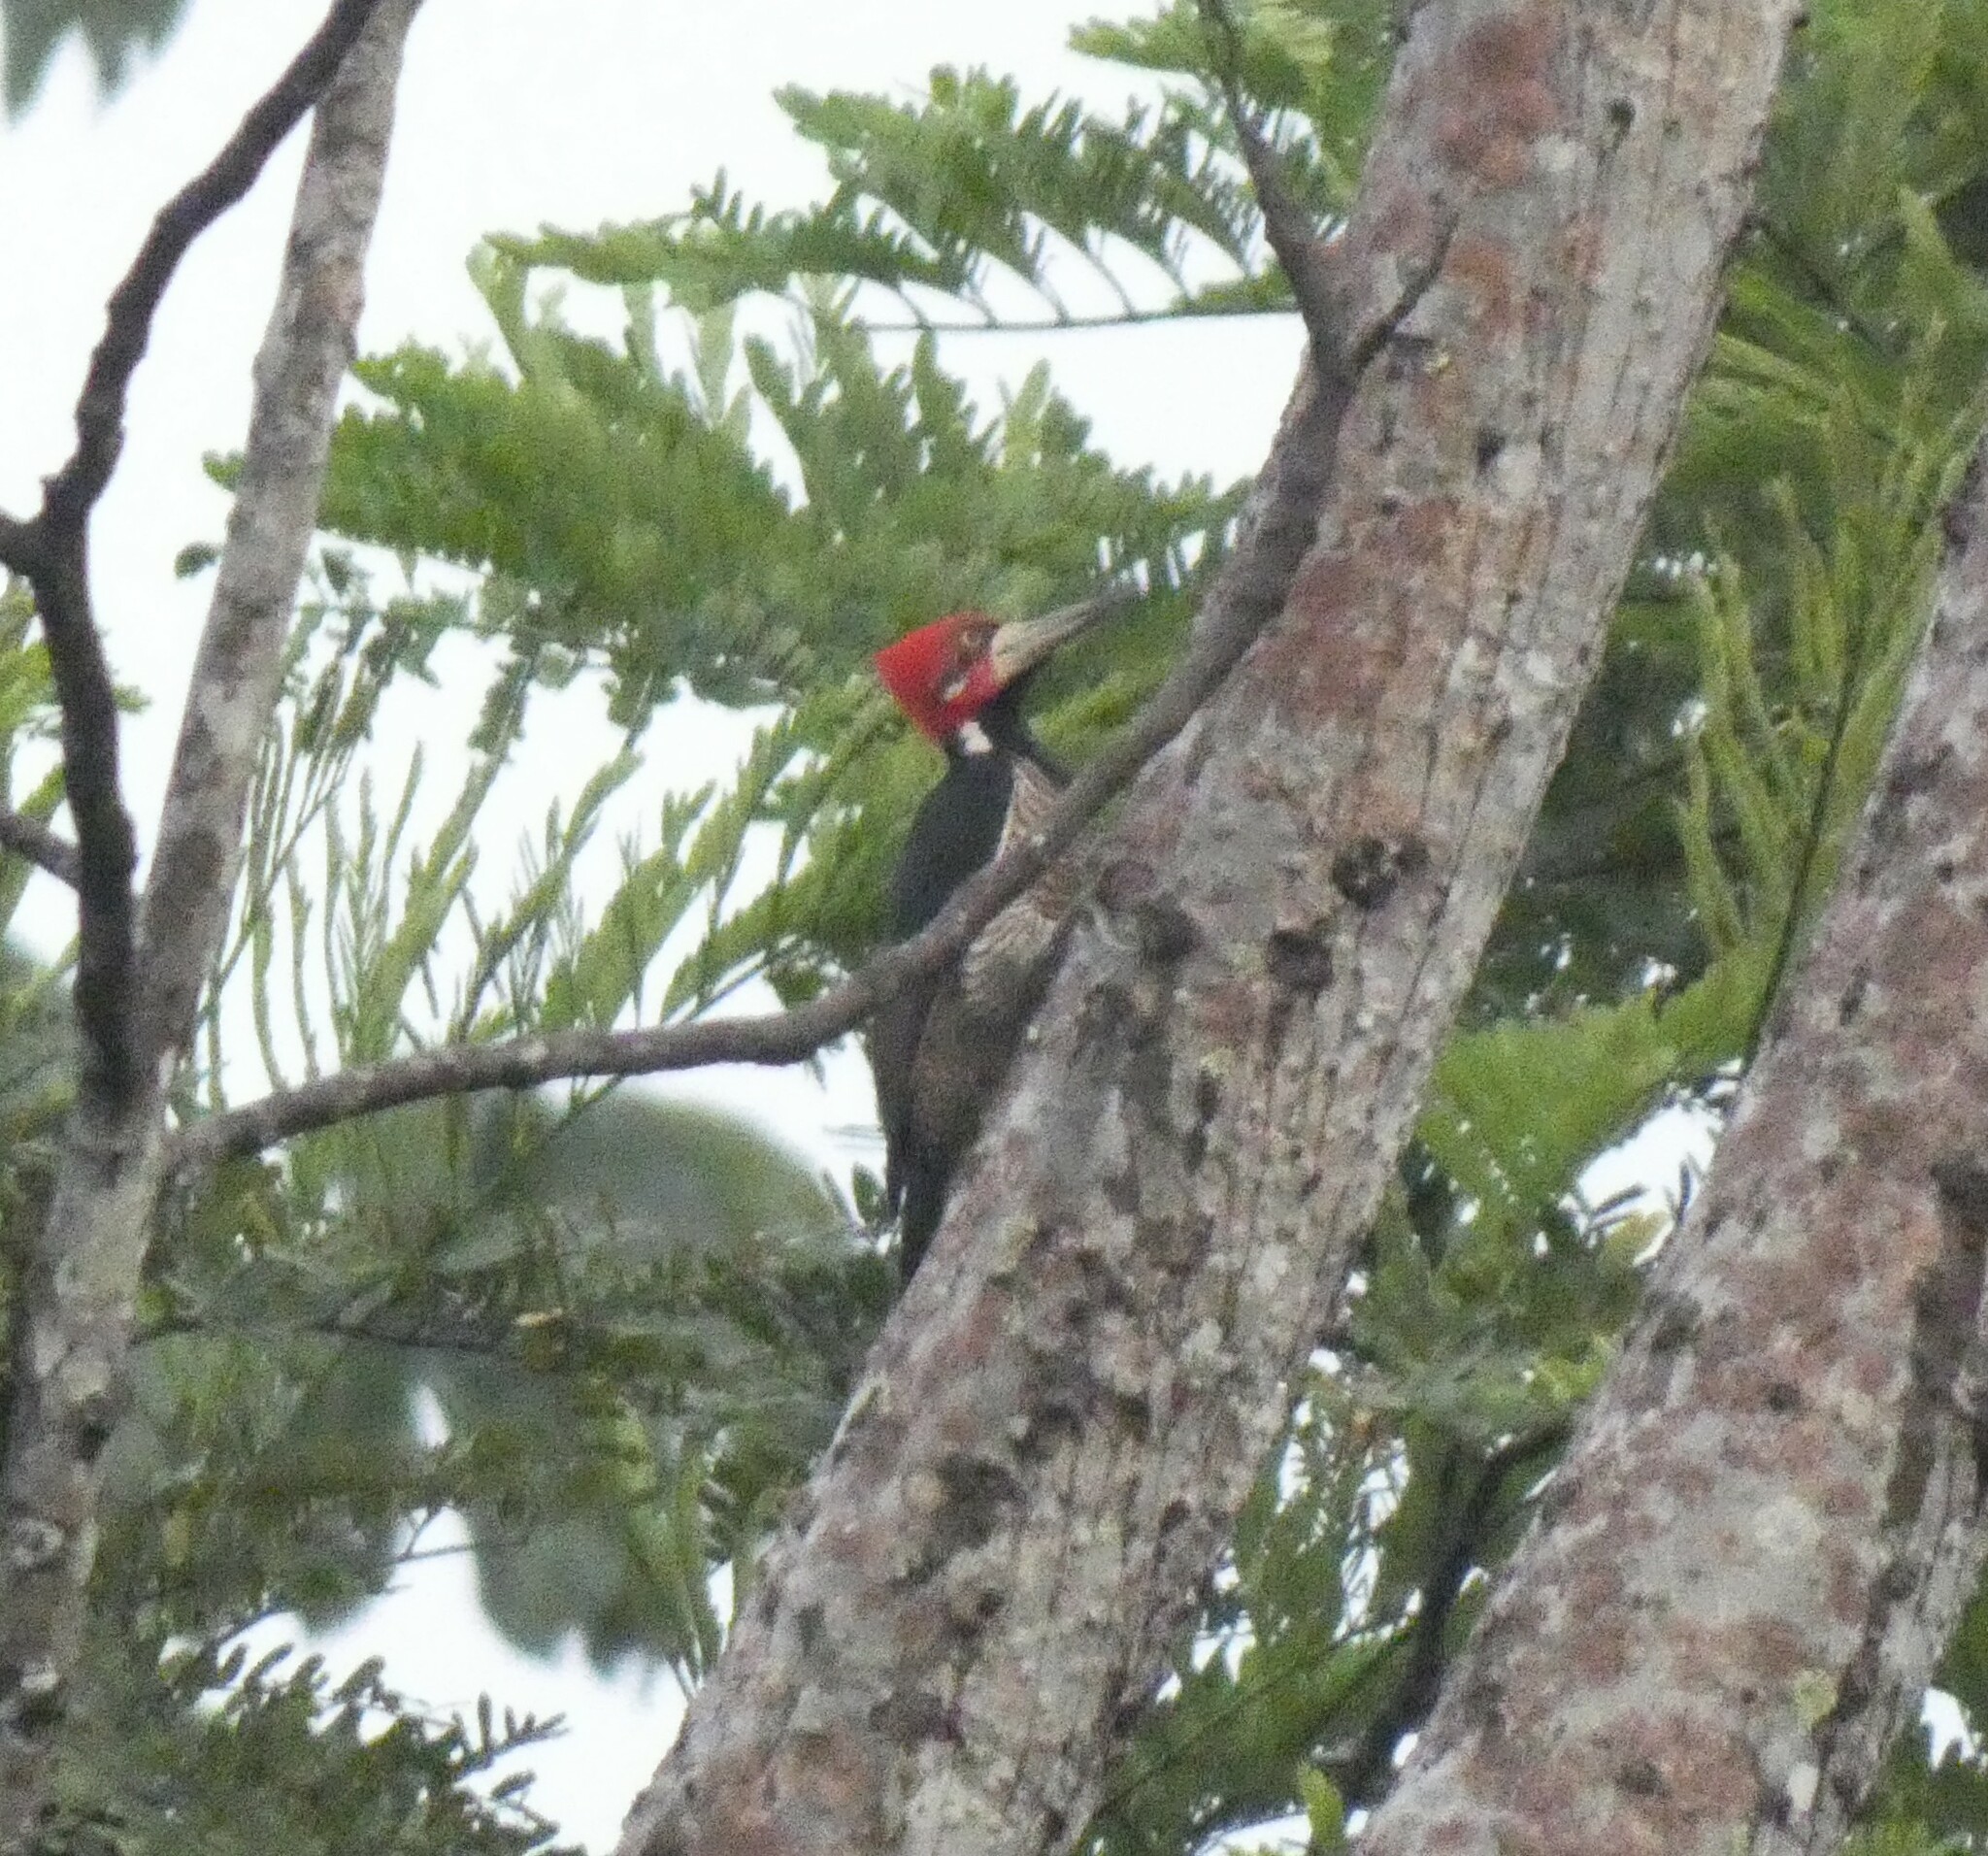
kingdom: Animalia
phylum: Chordata
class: Aves
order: Piciformes
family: Picidae
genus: Campephilus
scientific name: Campephilus melanoleucos
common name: Crimson-crested woodpecker
